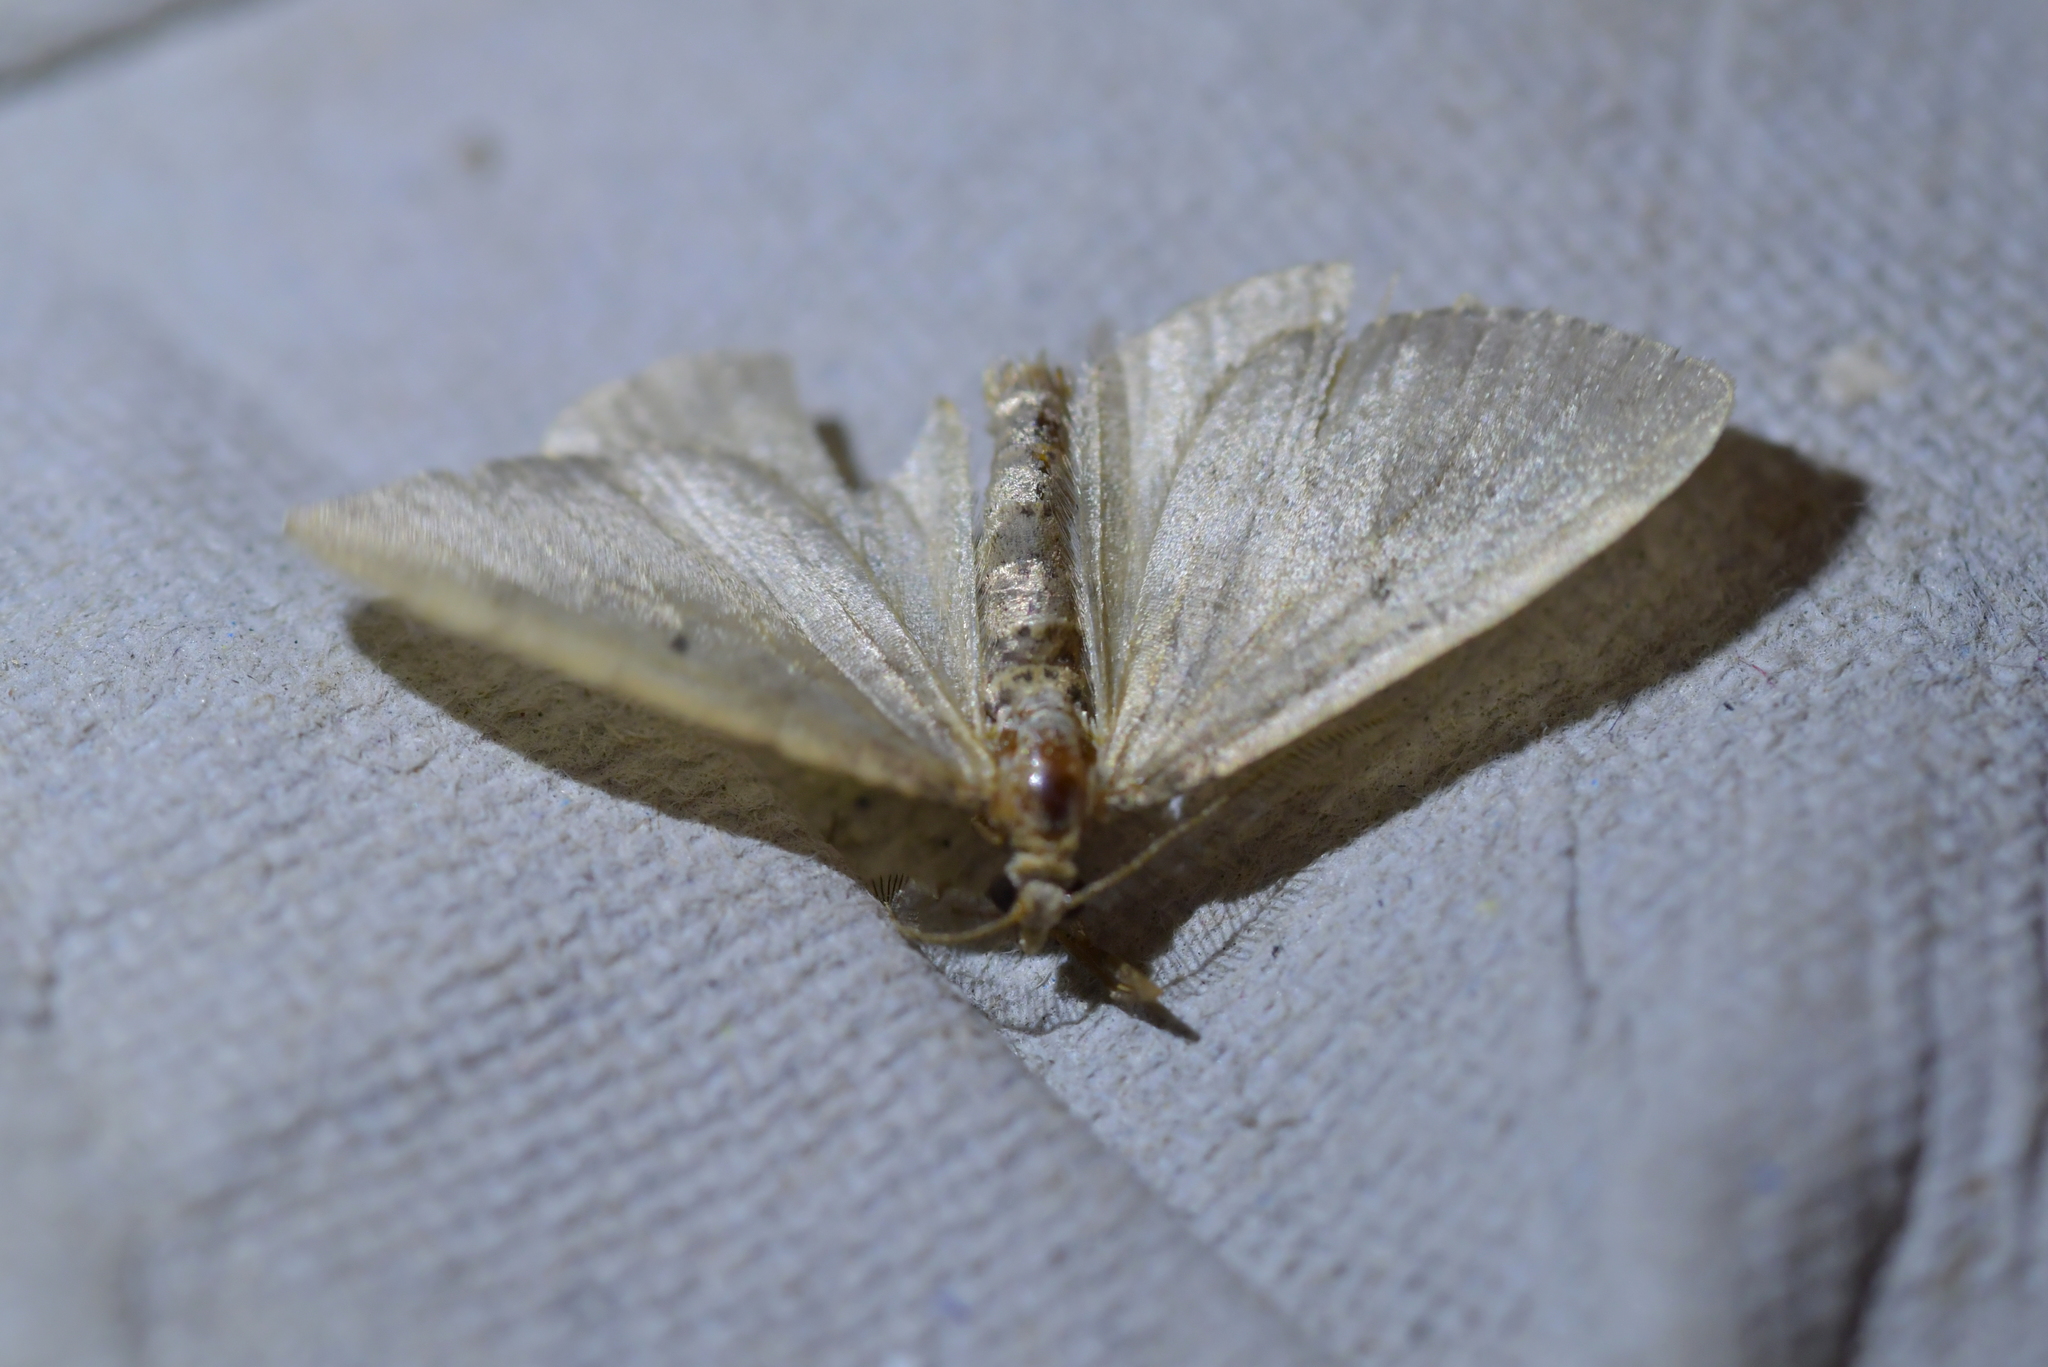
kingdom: Animalia
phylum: Arthropoda
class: Insecta
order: Lepidoptera
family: Geometridae
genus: Asaphodes
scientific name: Asaphodes aegrota
